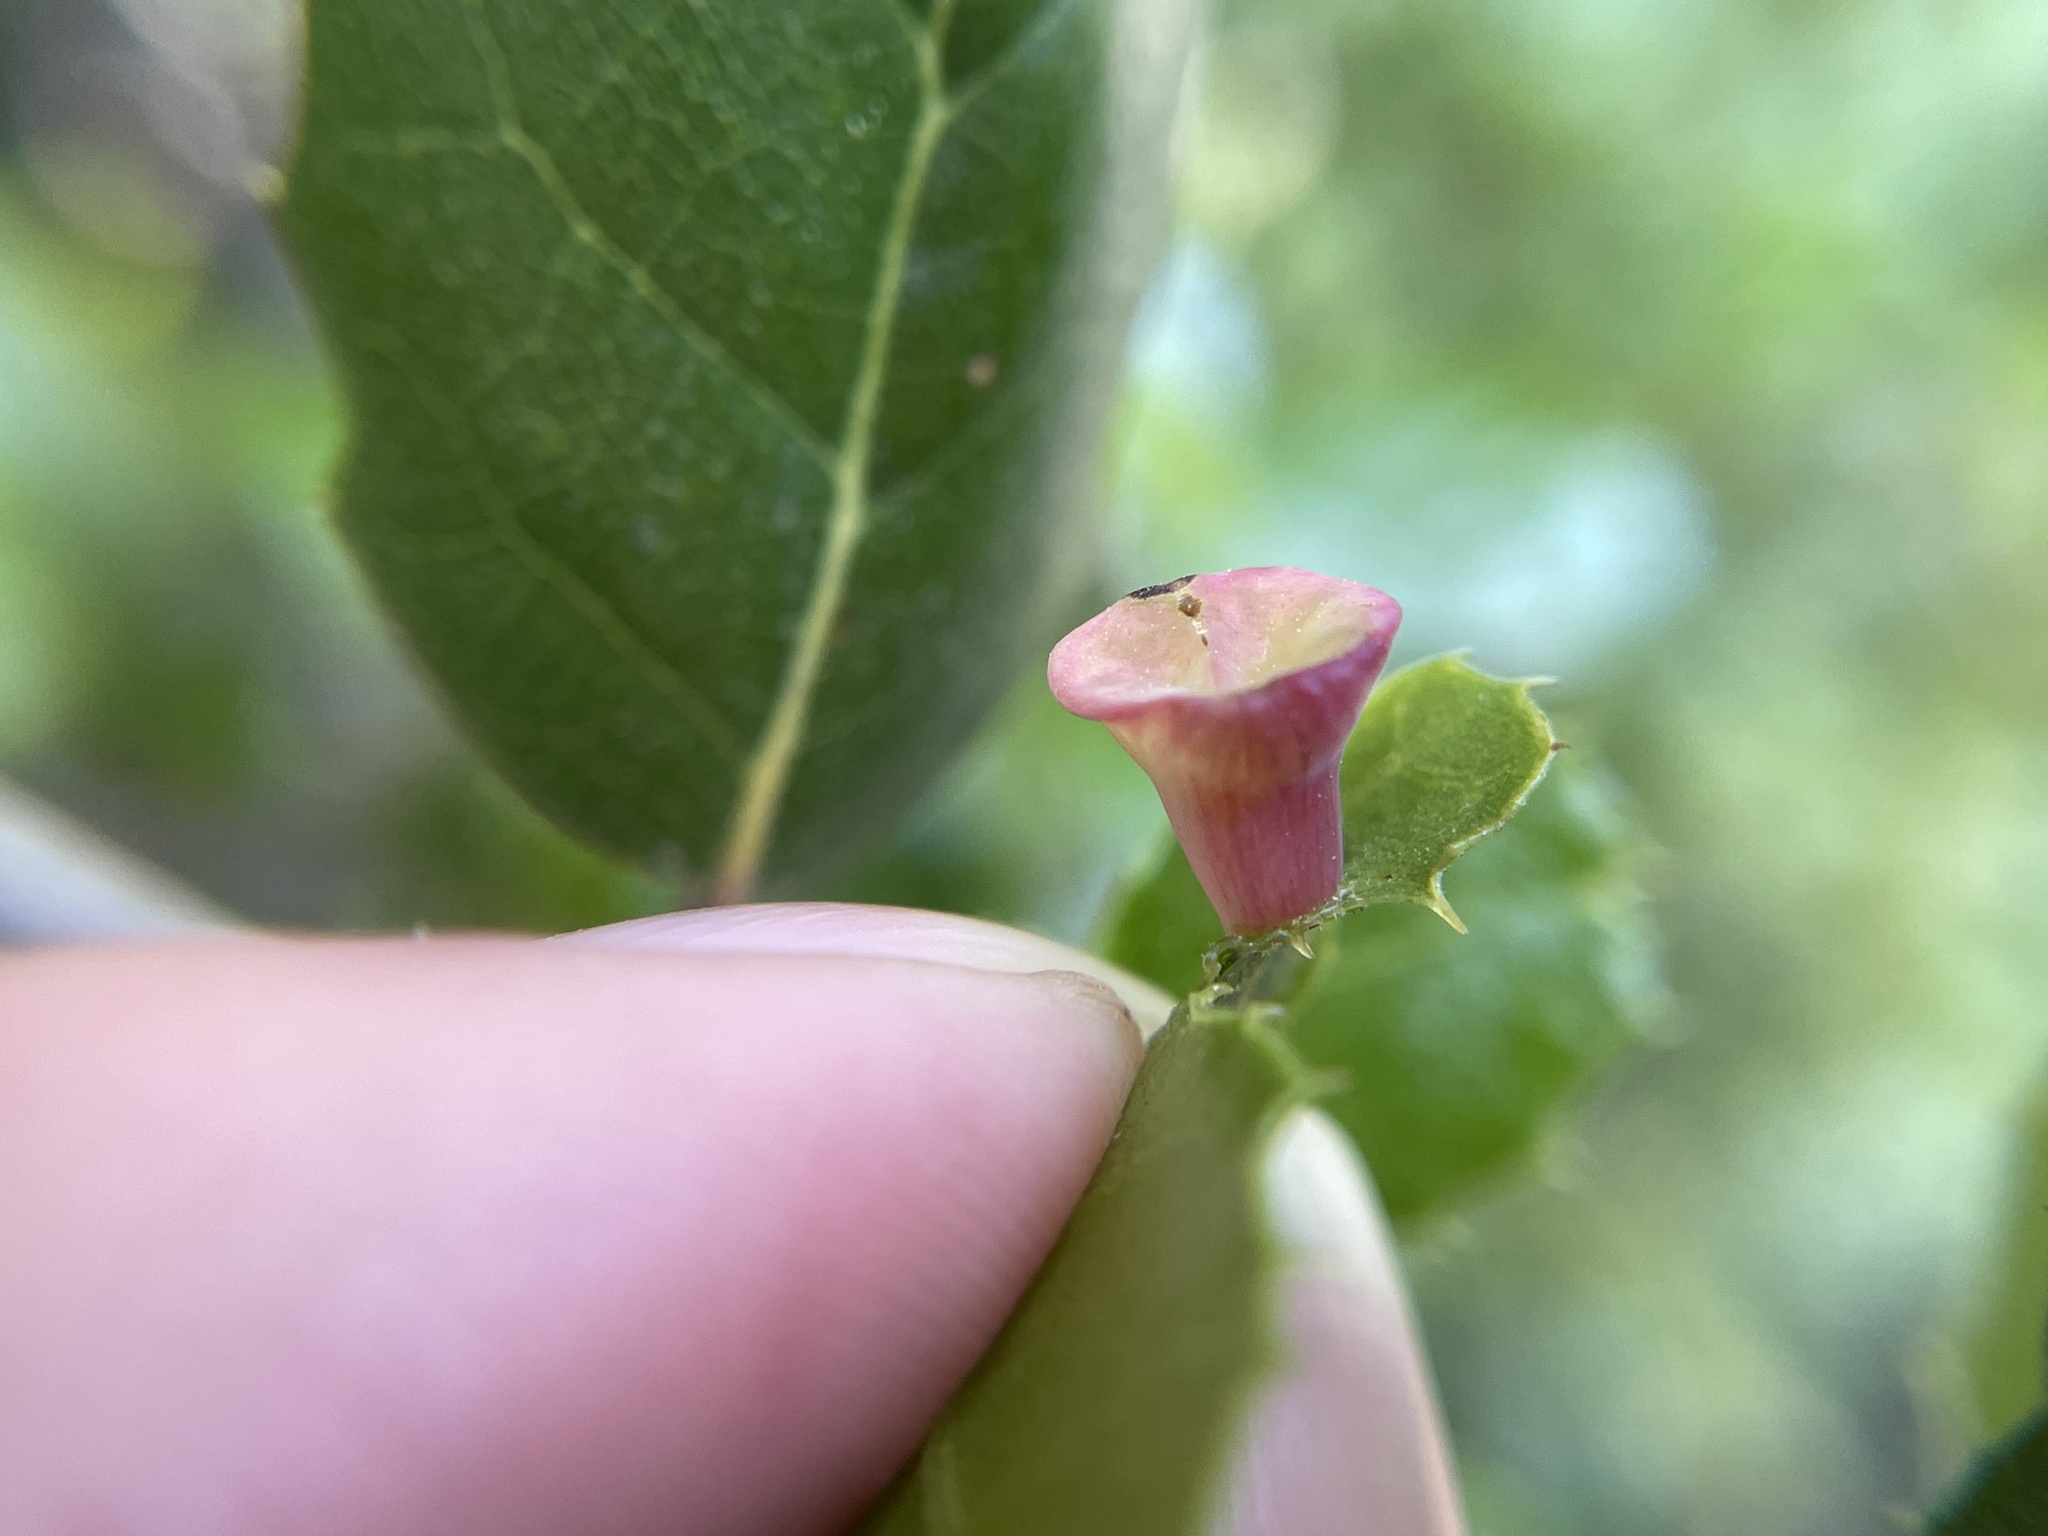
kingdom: Animalia
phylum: Arthropoda
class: Insecta
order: Hymenoptera
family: Cynipidae
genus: Amphibolips
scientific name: Amphibolips quercuspomiformis
